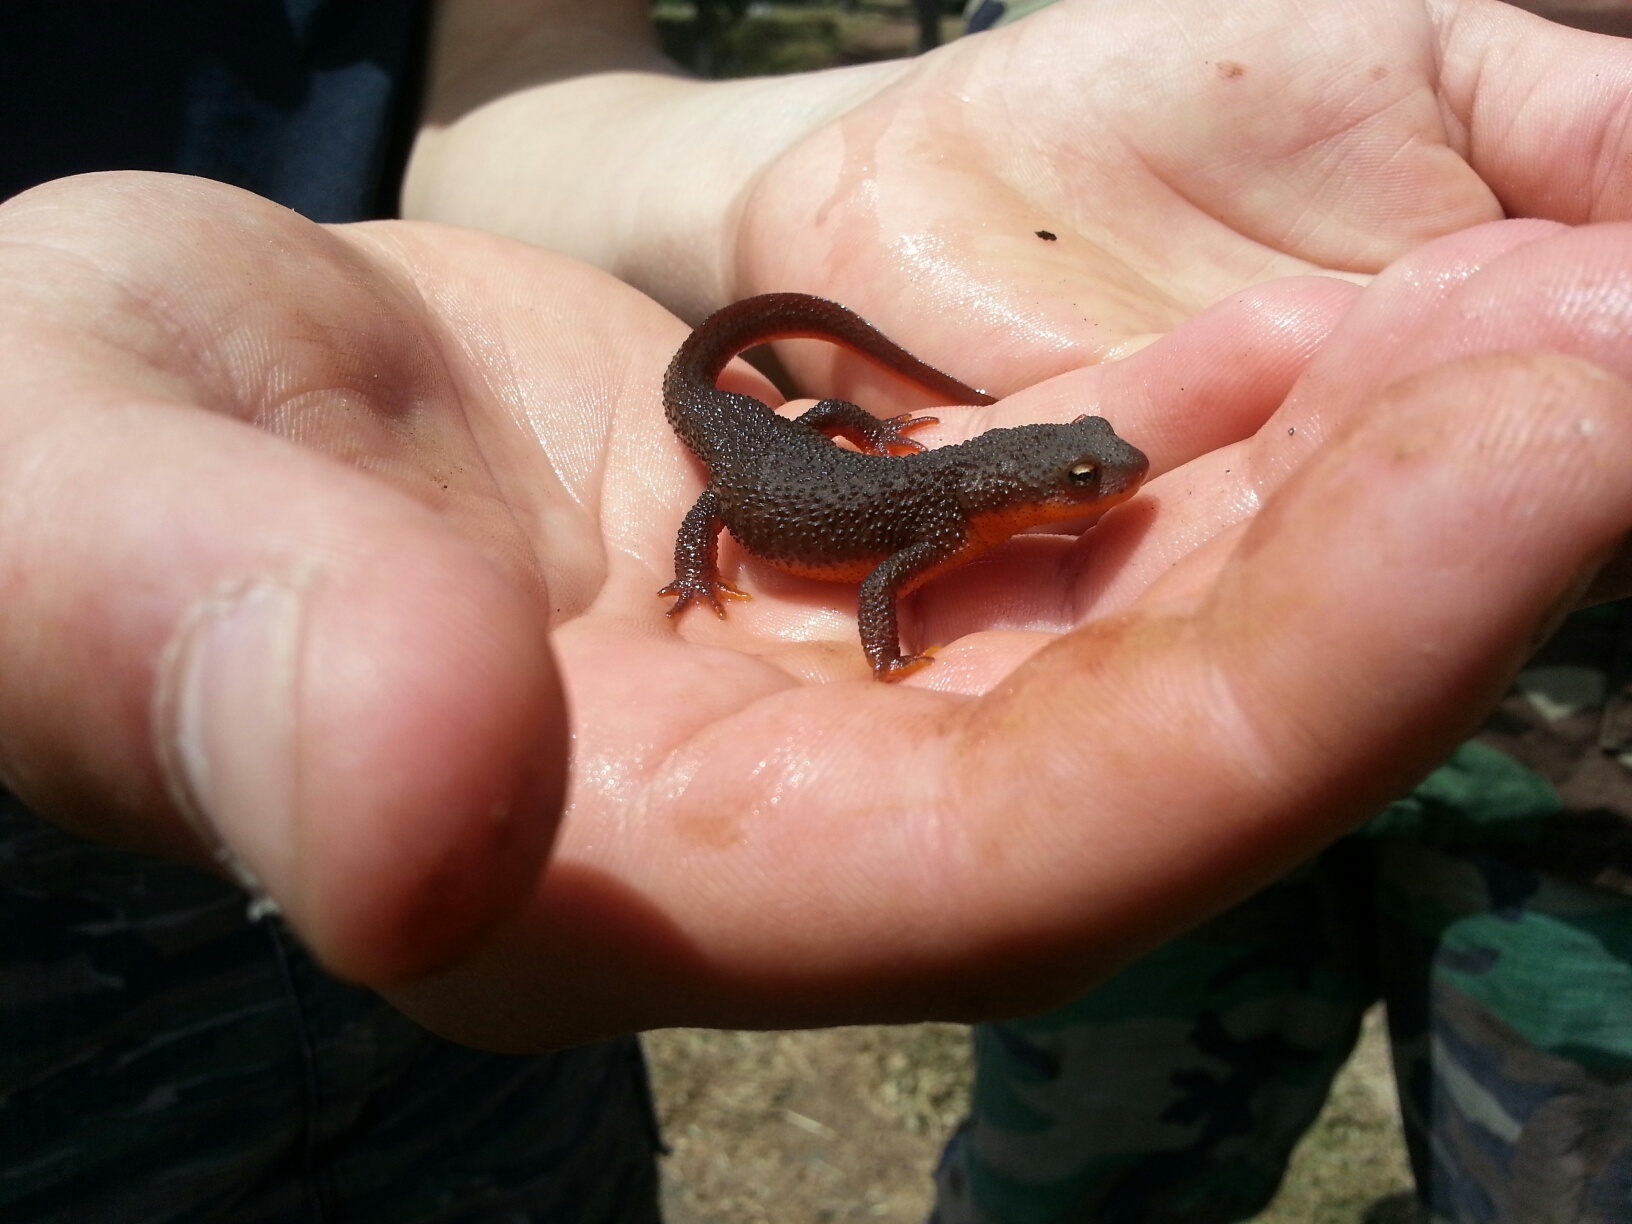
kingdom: Animalia
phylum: Chordata
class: Amphibia
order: Caudata
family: Salamandridae
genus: Taricha
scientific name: Taricha granulosa
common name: Roughskin newt
